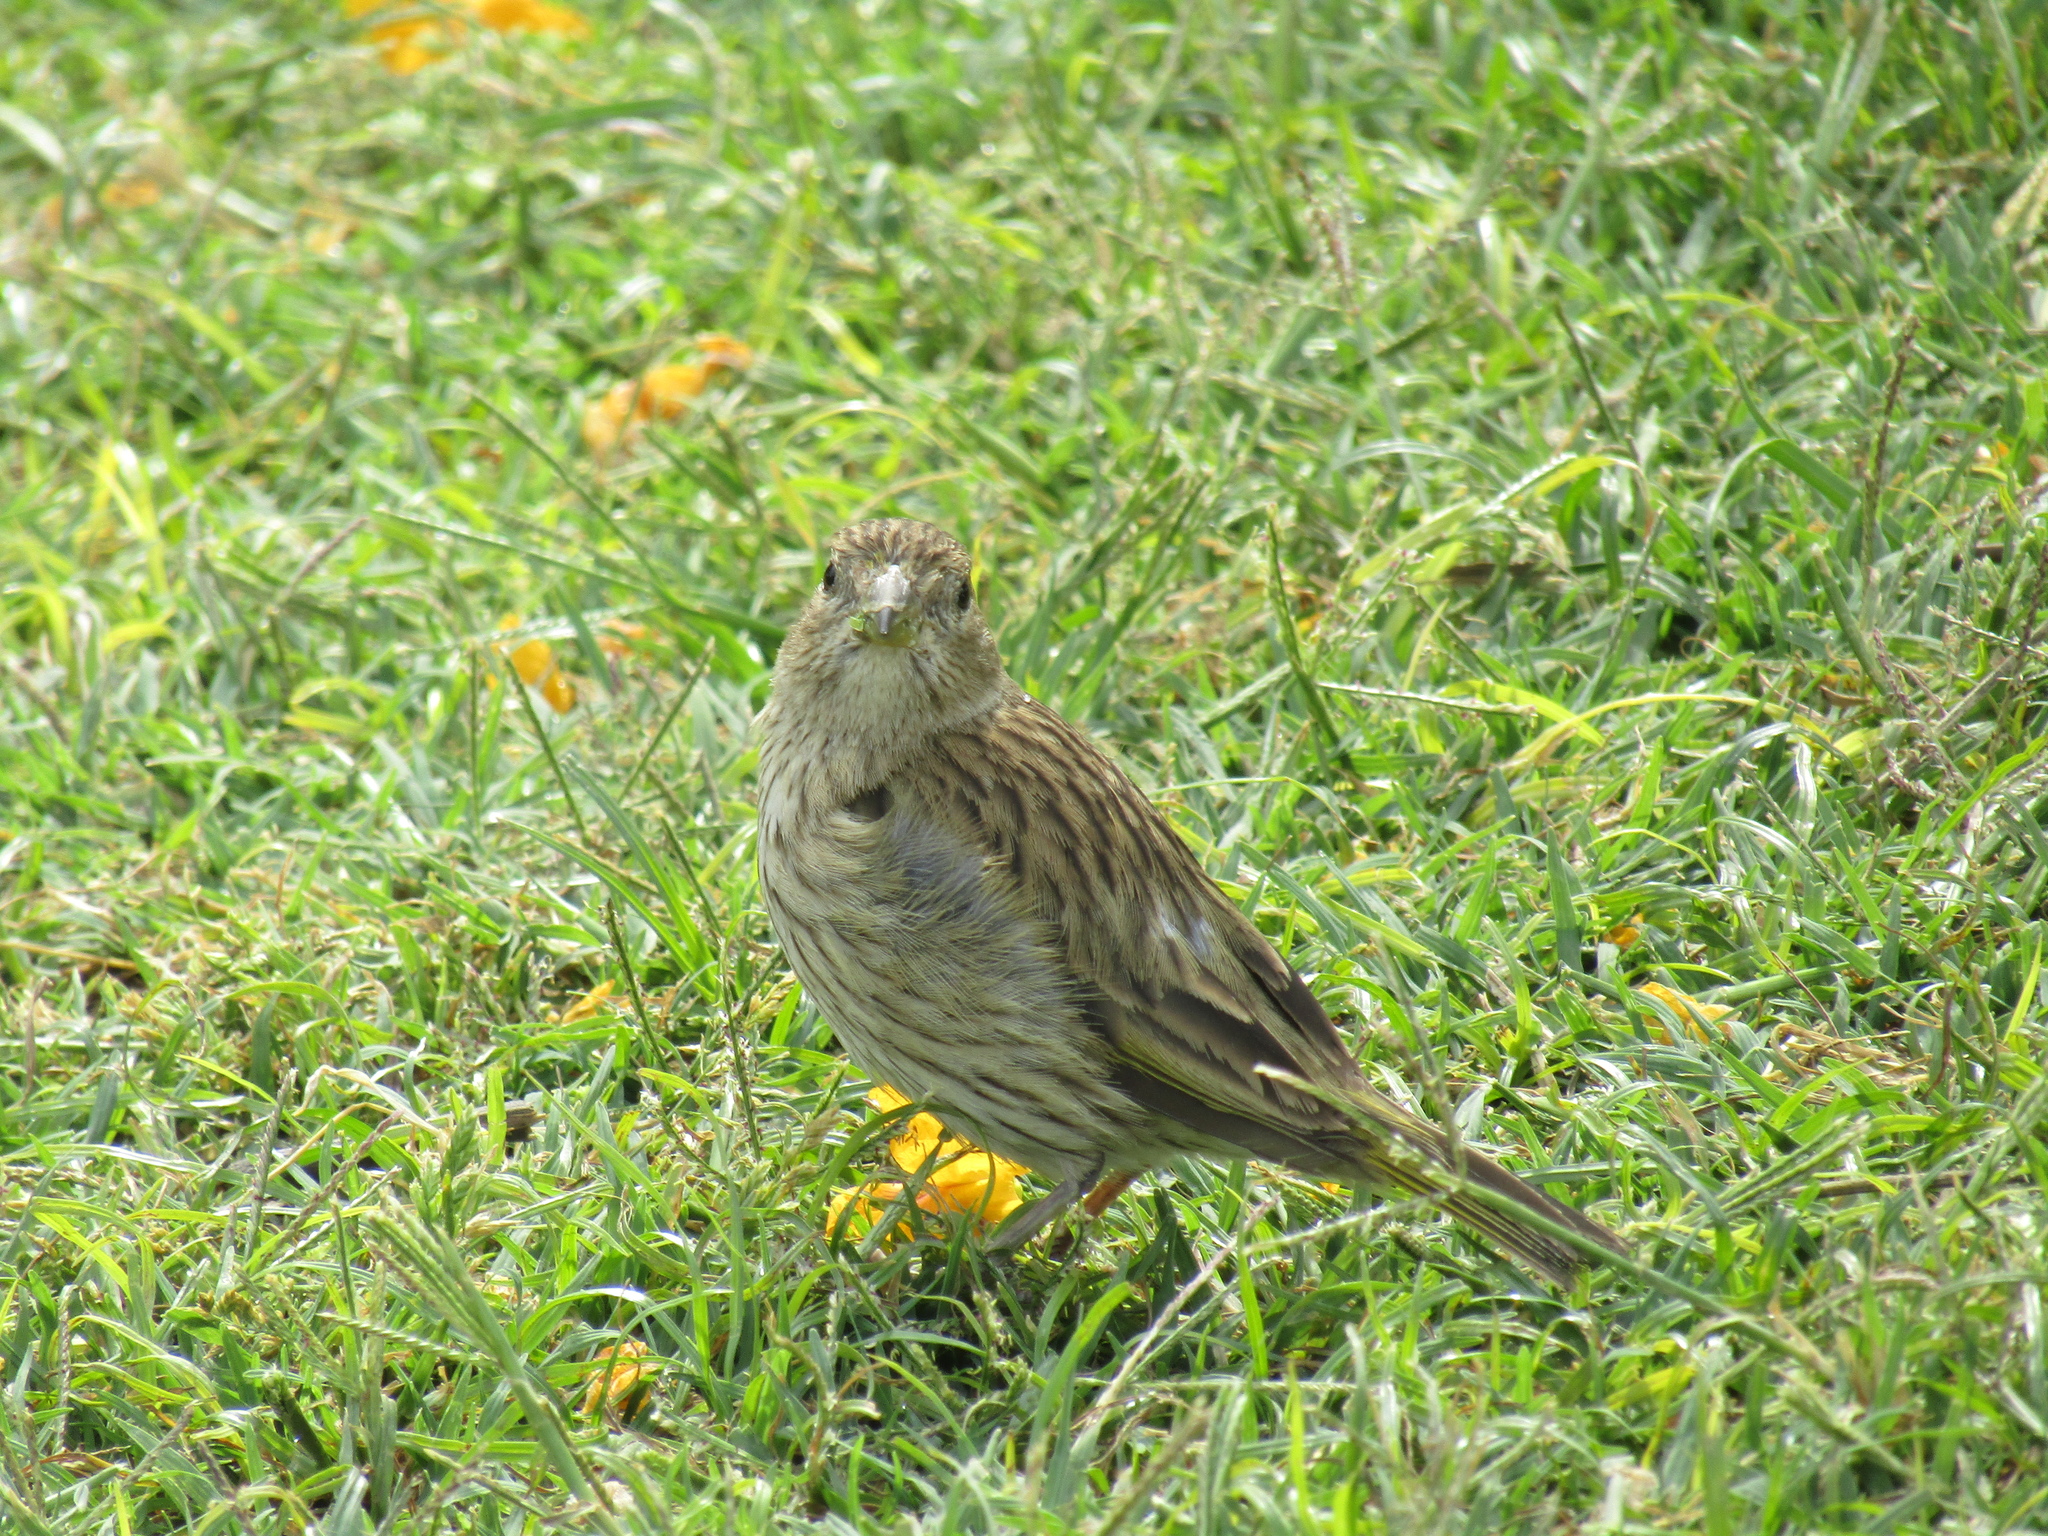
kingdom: Animalia
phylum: Chordata
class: Aves
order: Passeriformes
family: Thraupidae
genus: Sicalis
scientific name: Sicalis flaveola
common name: Saffron finch
